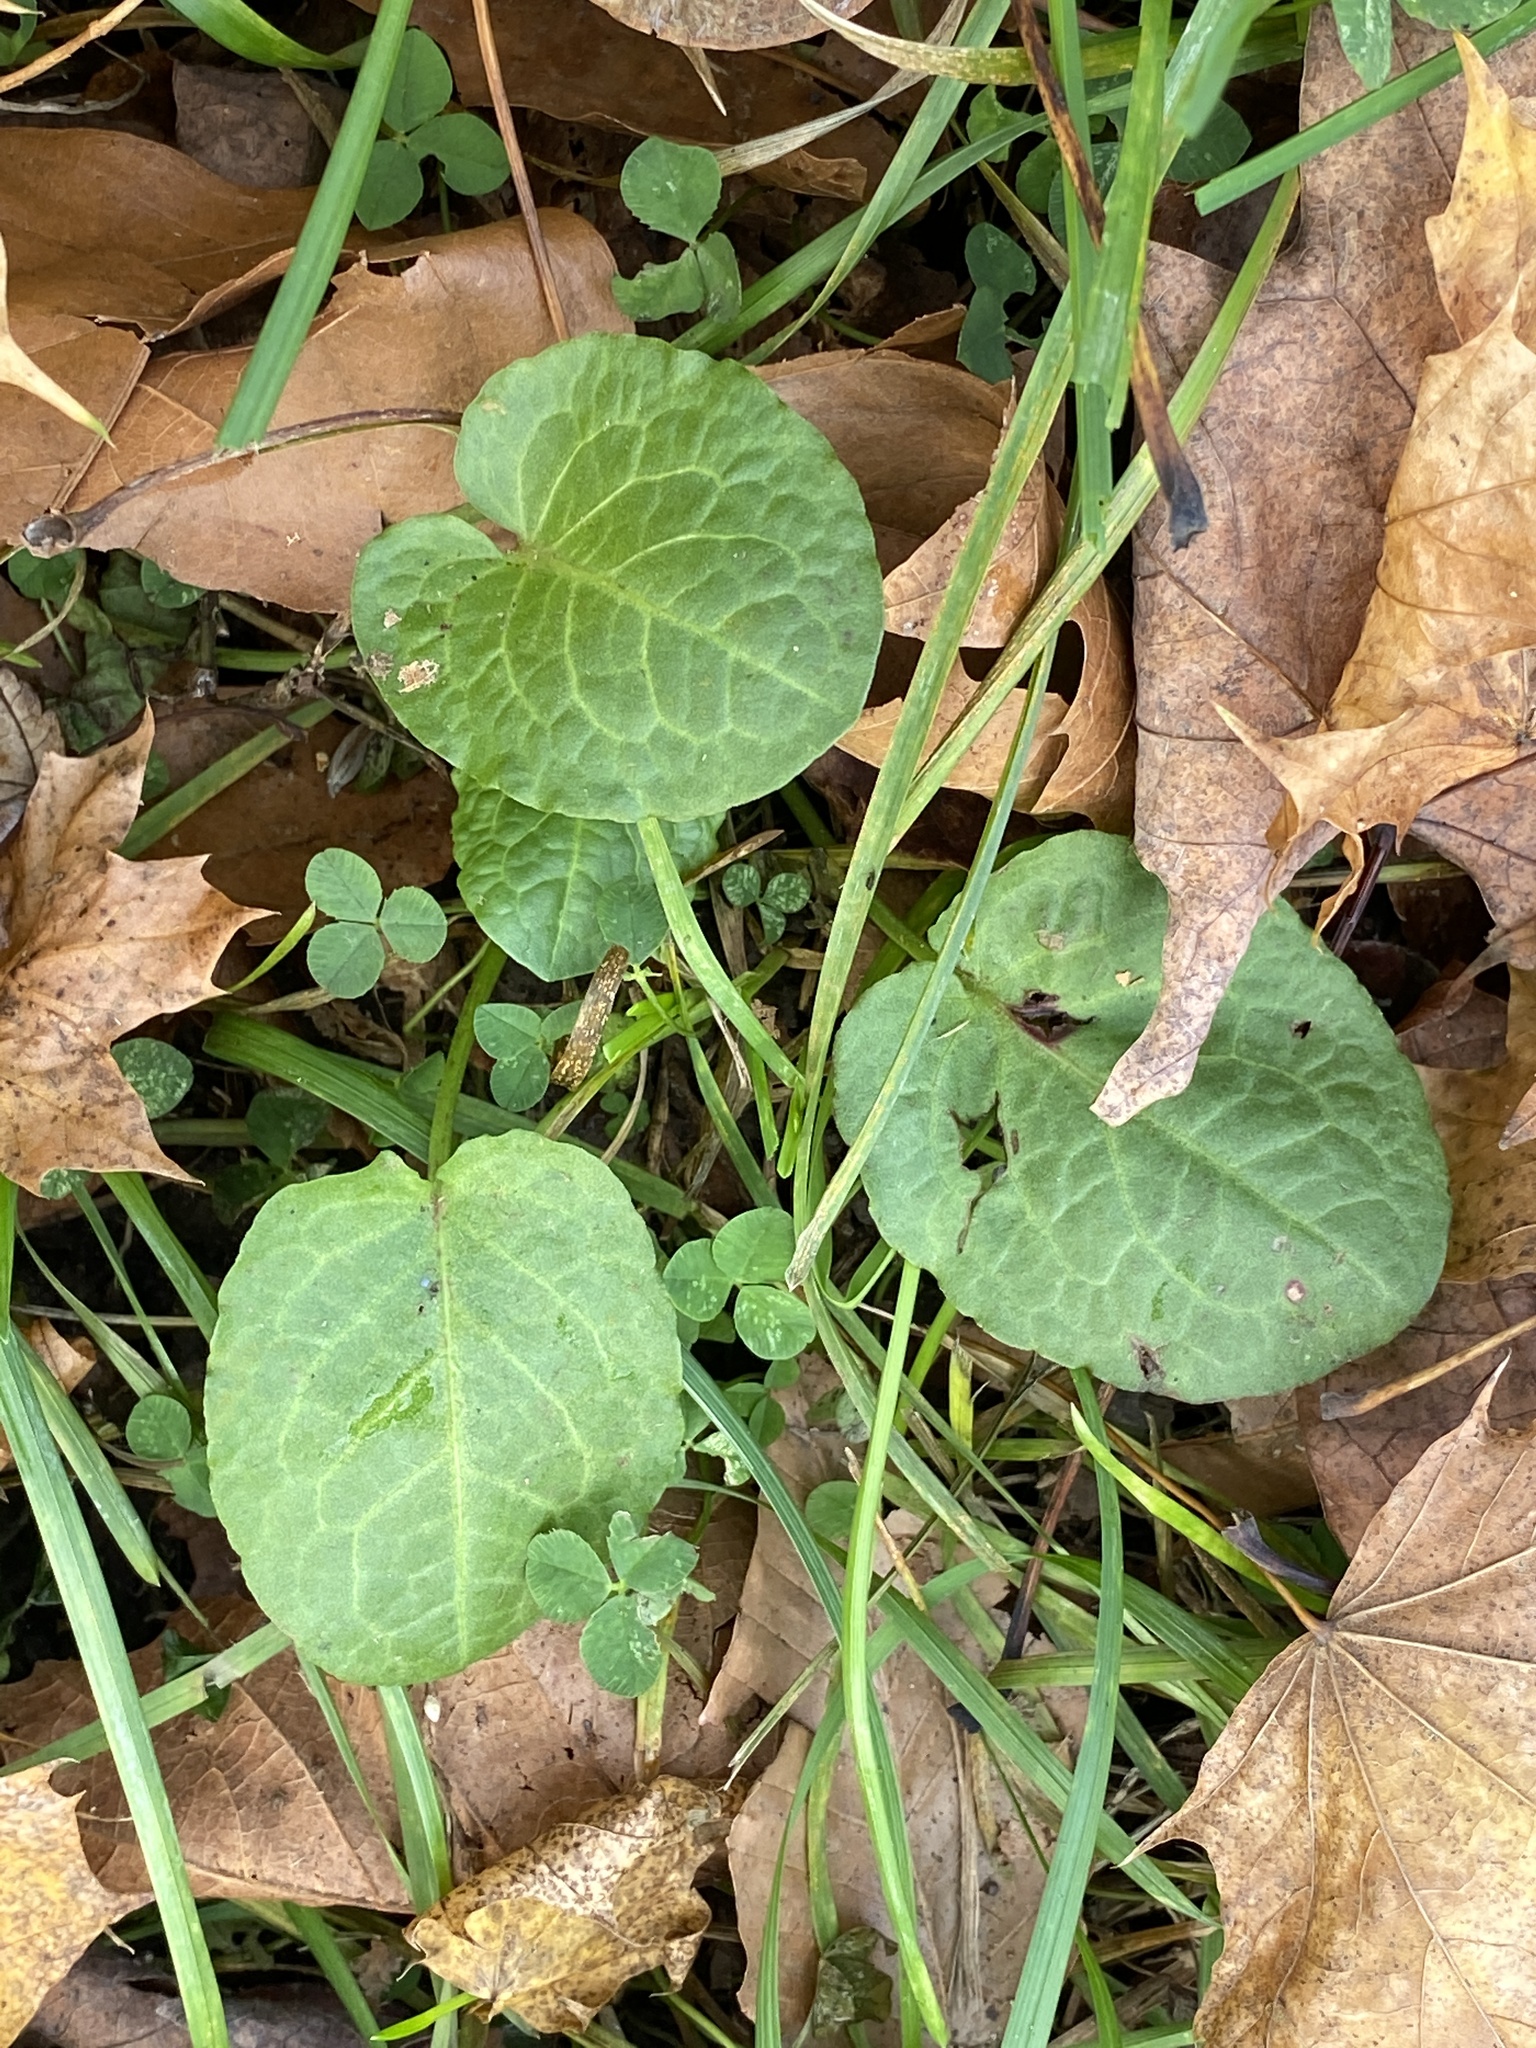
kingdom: Plantae
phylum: Tracheophyta
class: Magnoliopsida
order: Caryophyllales
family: Polygonaceae
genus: Rumex
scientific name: Rumex obtusifolius
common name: Bitter dock
